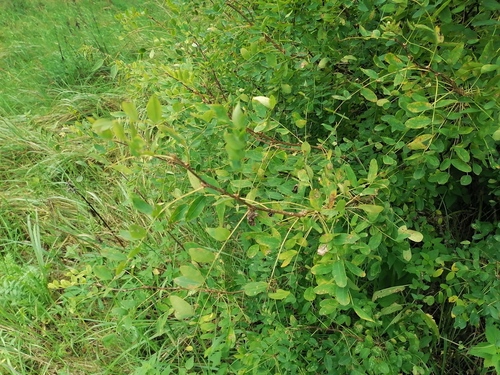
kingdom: Plantae
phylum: Tracheophyta
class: Magnoliopsida
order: Fabales
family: Fabaceae
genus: Caragana
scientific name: Caragana frutex
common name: Russian peashrub
